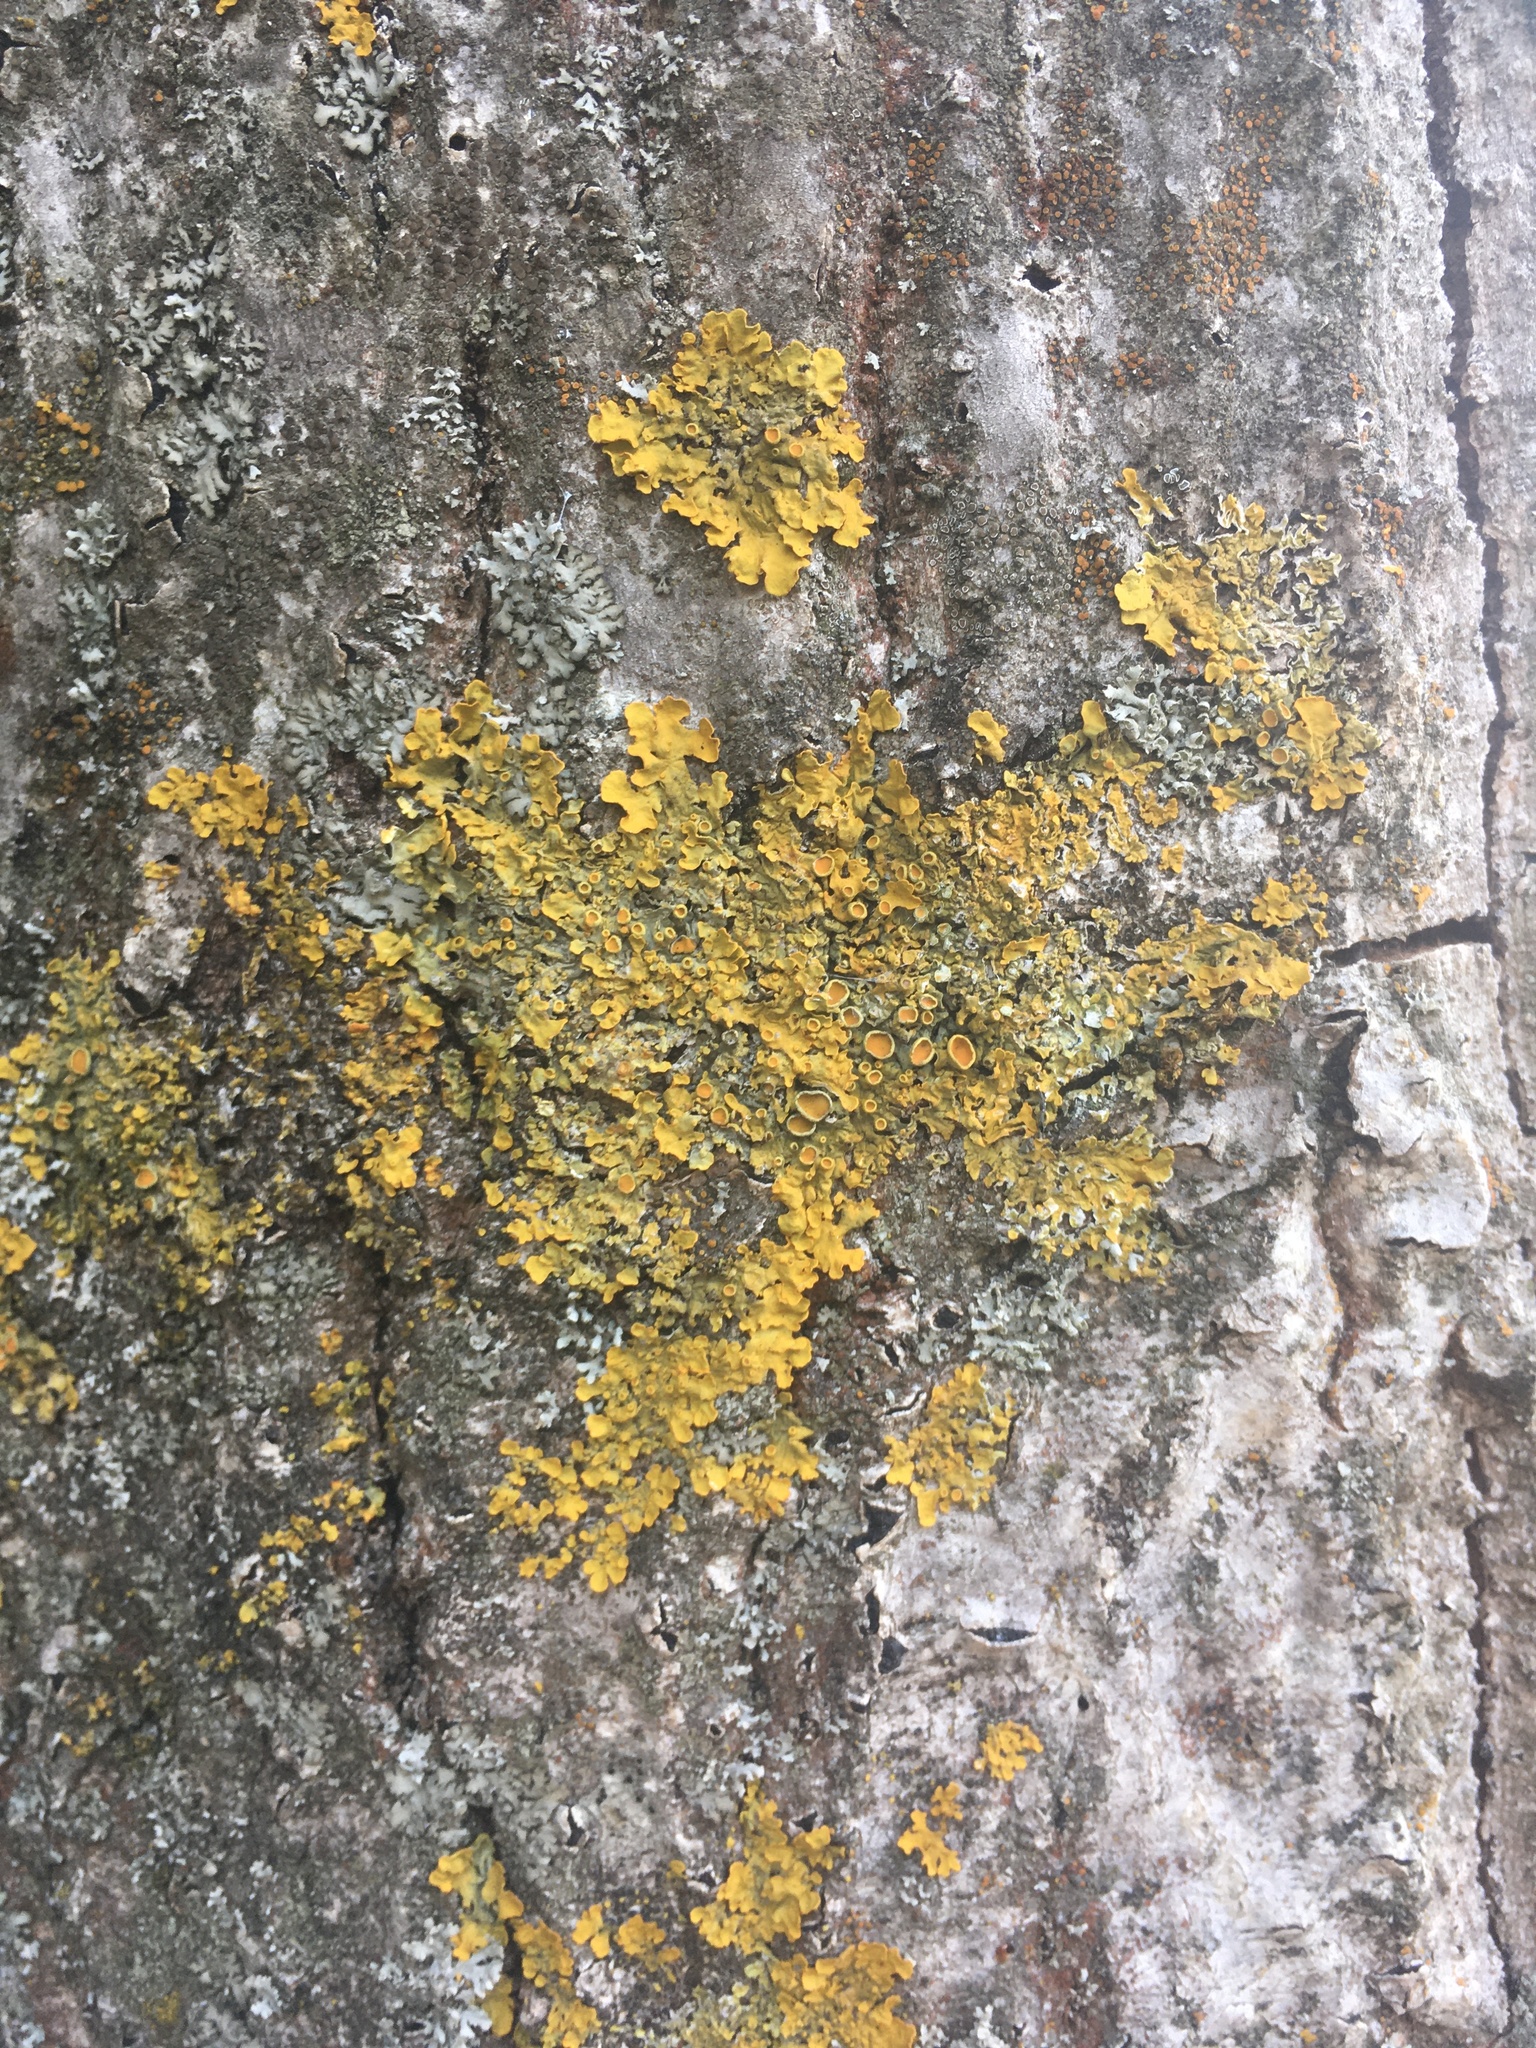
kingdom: Fungi
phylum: Ascomycota
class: Lecanoromycetes
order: Teloschistales
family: Teloschistaceae
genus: Xanthoria
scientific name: Xanthoria parietina
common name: Common orange lichen
